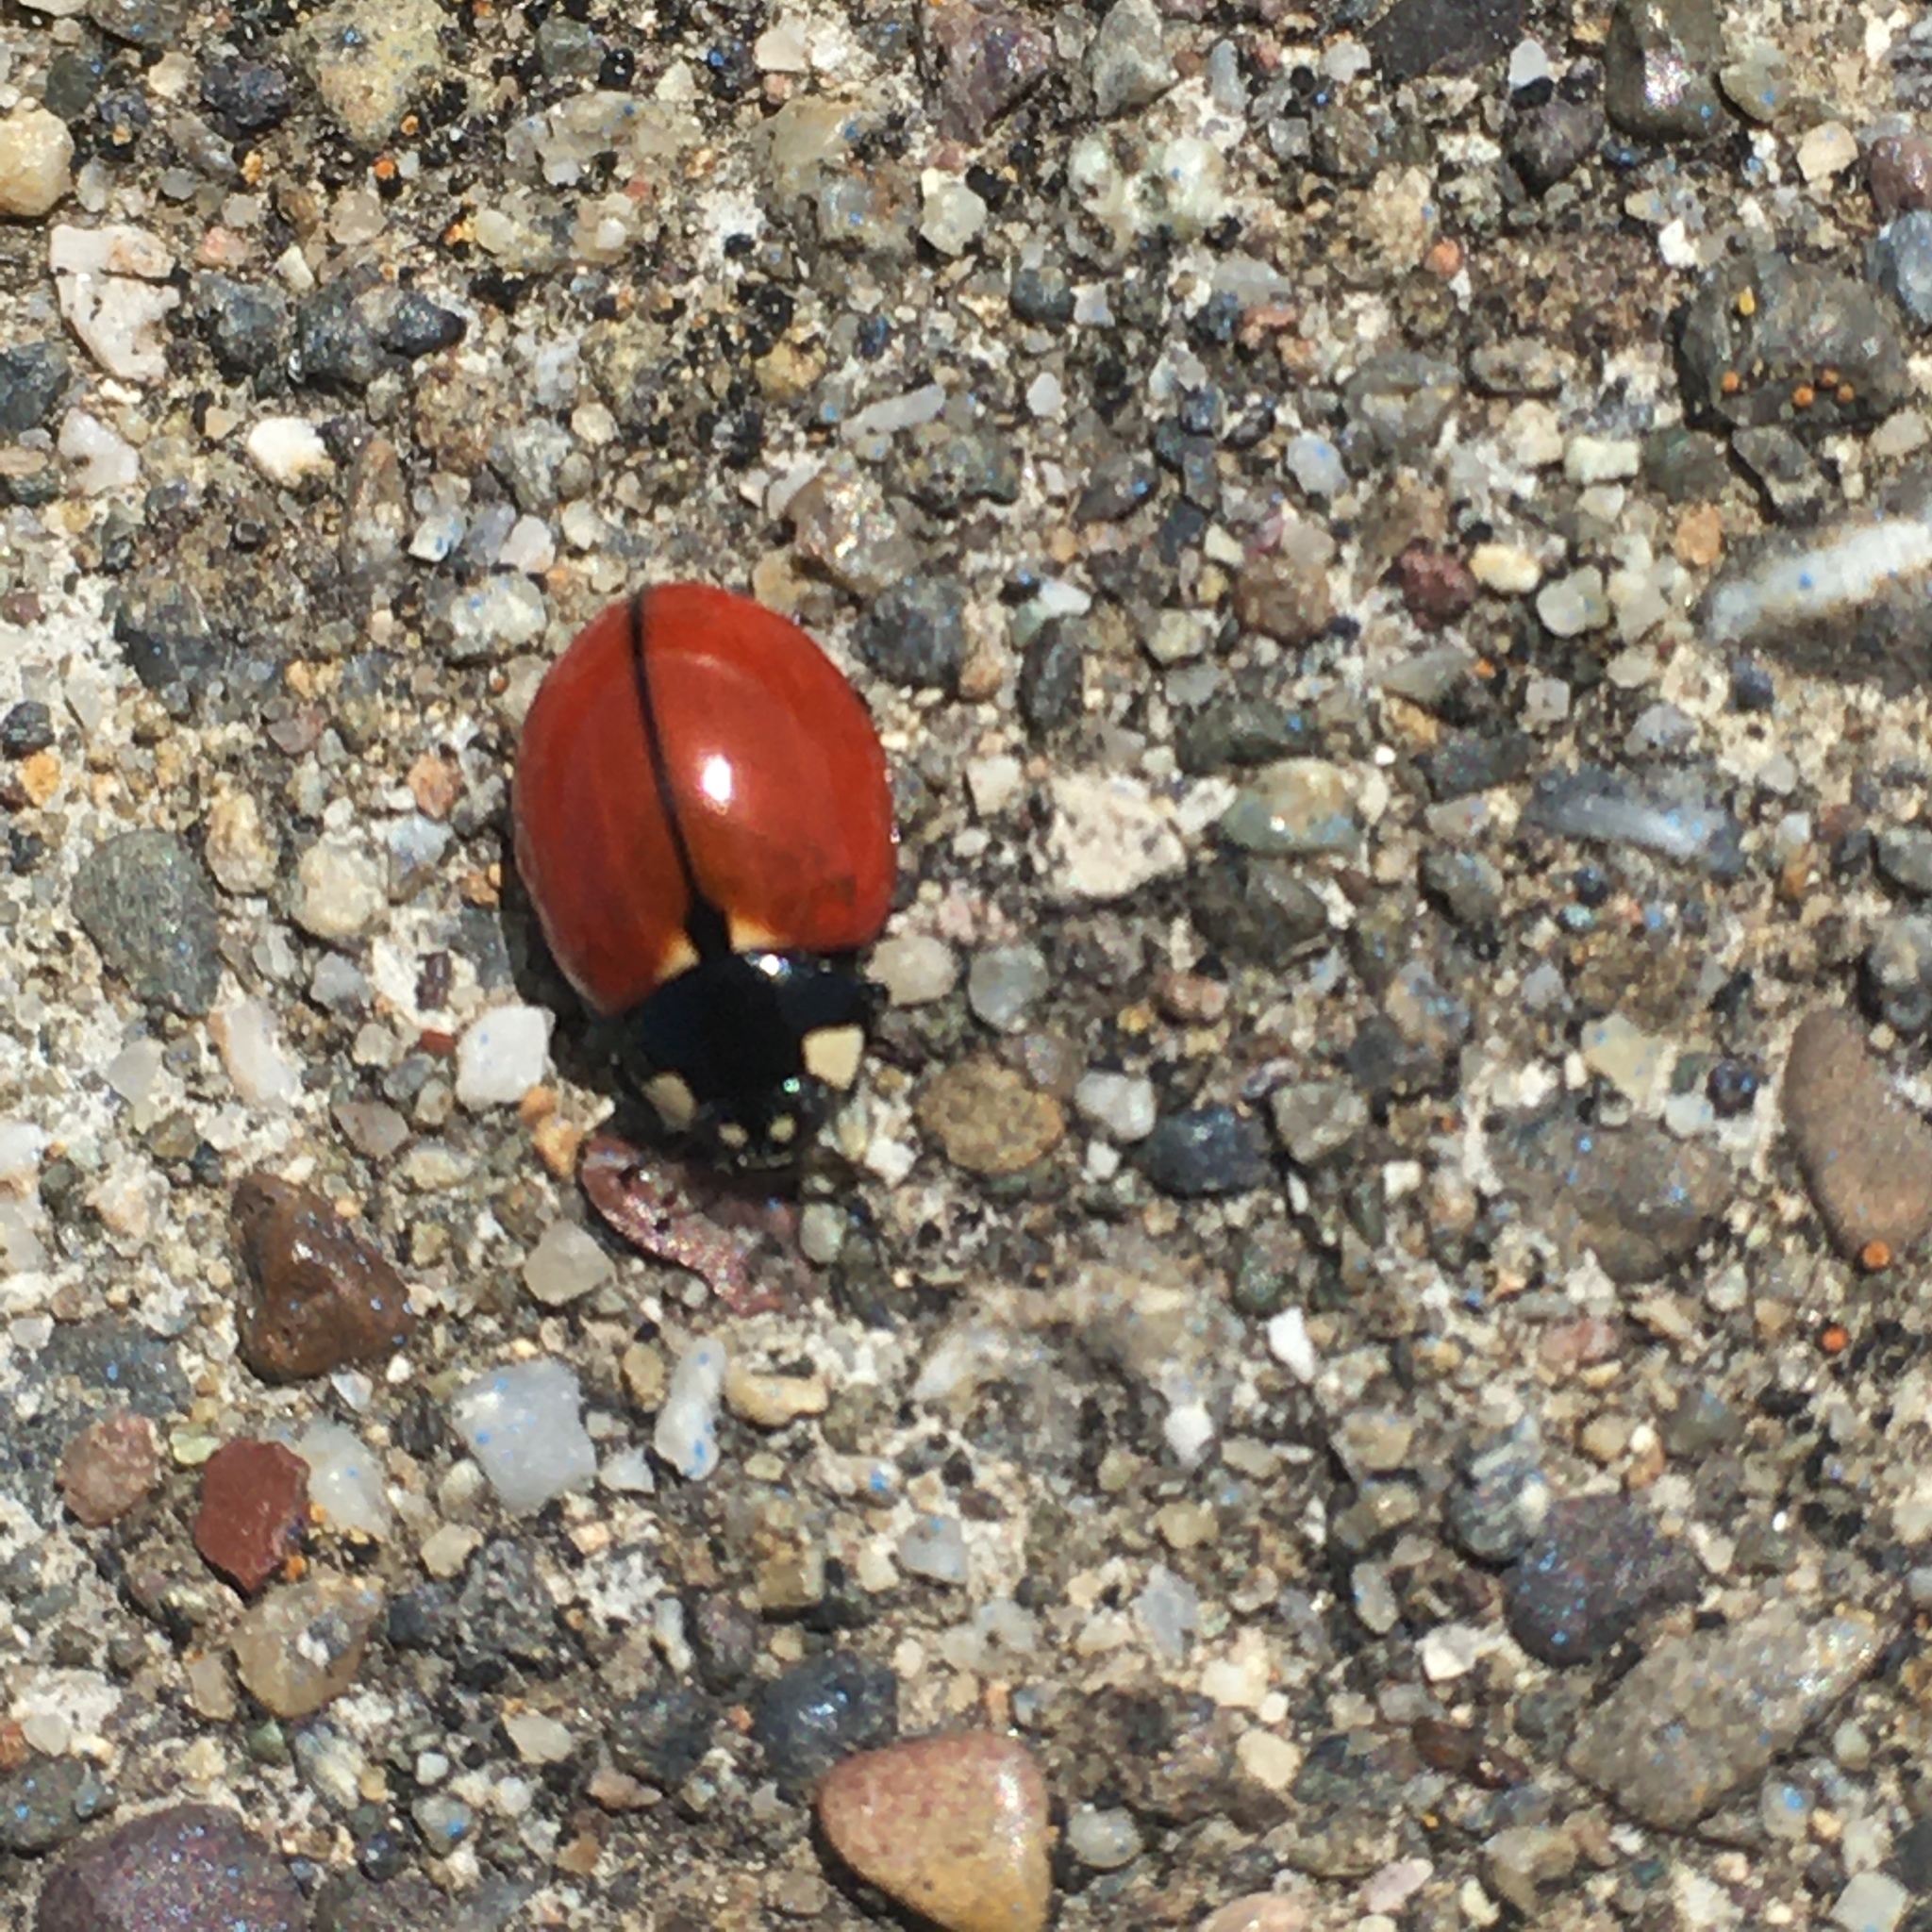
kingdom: Animalia
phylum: Arthropoda
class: Insecta
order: Coleoptera
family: Coccinellidae
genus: Coccinella
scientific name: Coccinella californica
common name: Lady beetle
